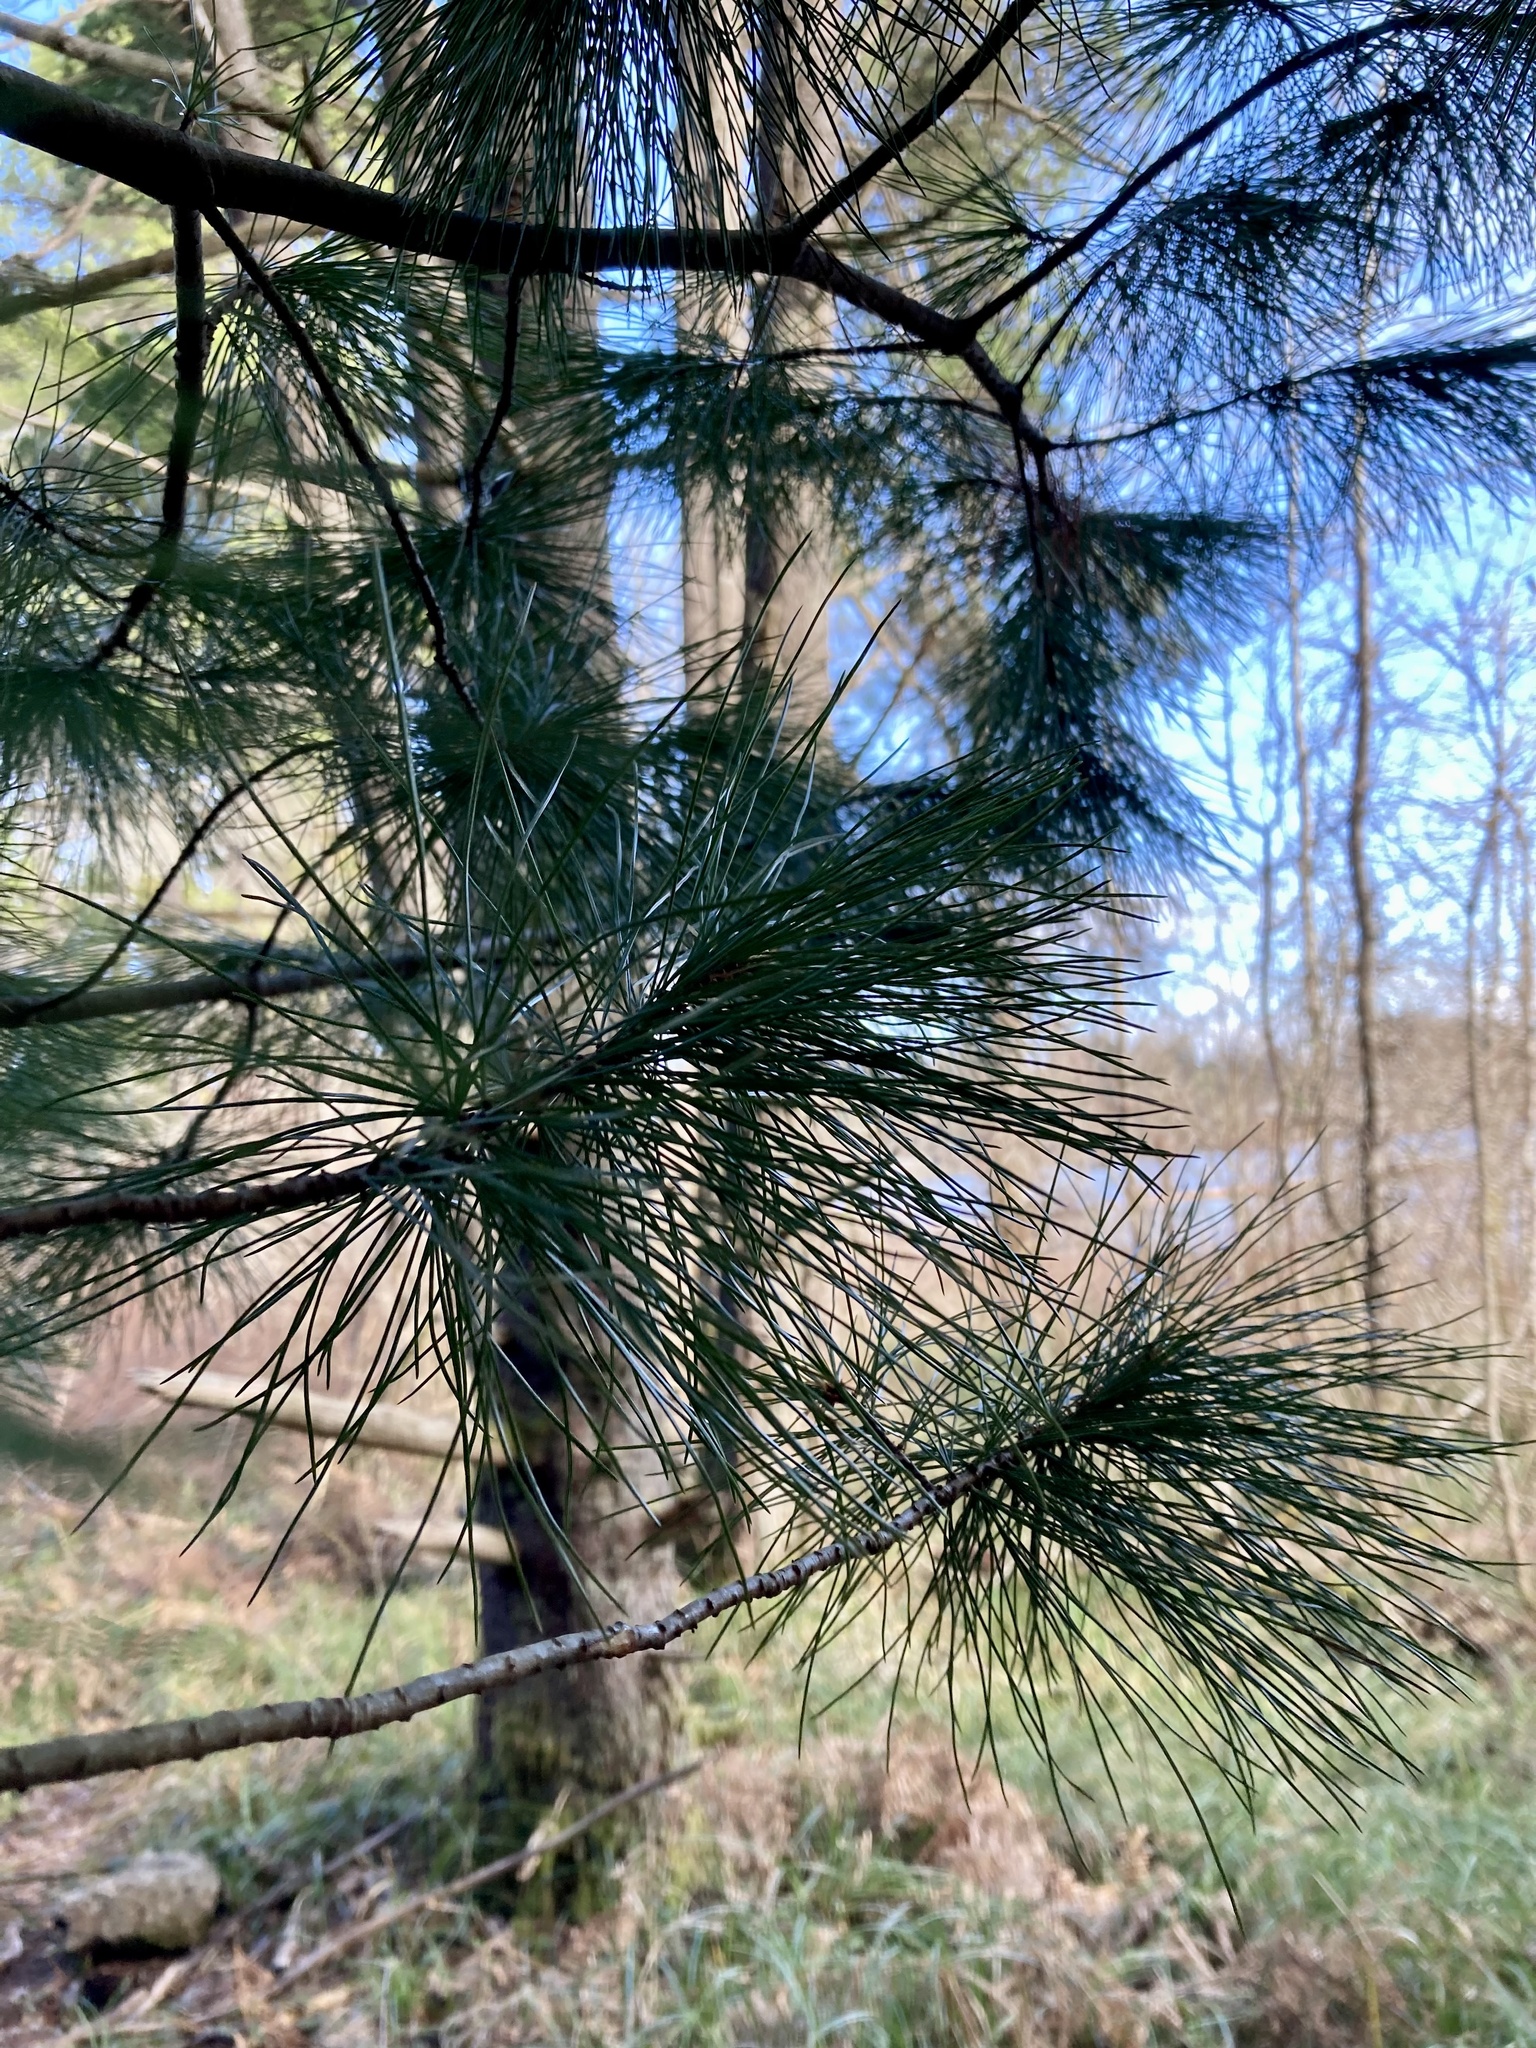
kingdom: Plantae
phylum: Tracheophyta
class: Pinopsida
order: Pinales
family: Pinaceae
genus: Pinus
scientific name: Pinus monticola
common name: Western white pine
